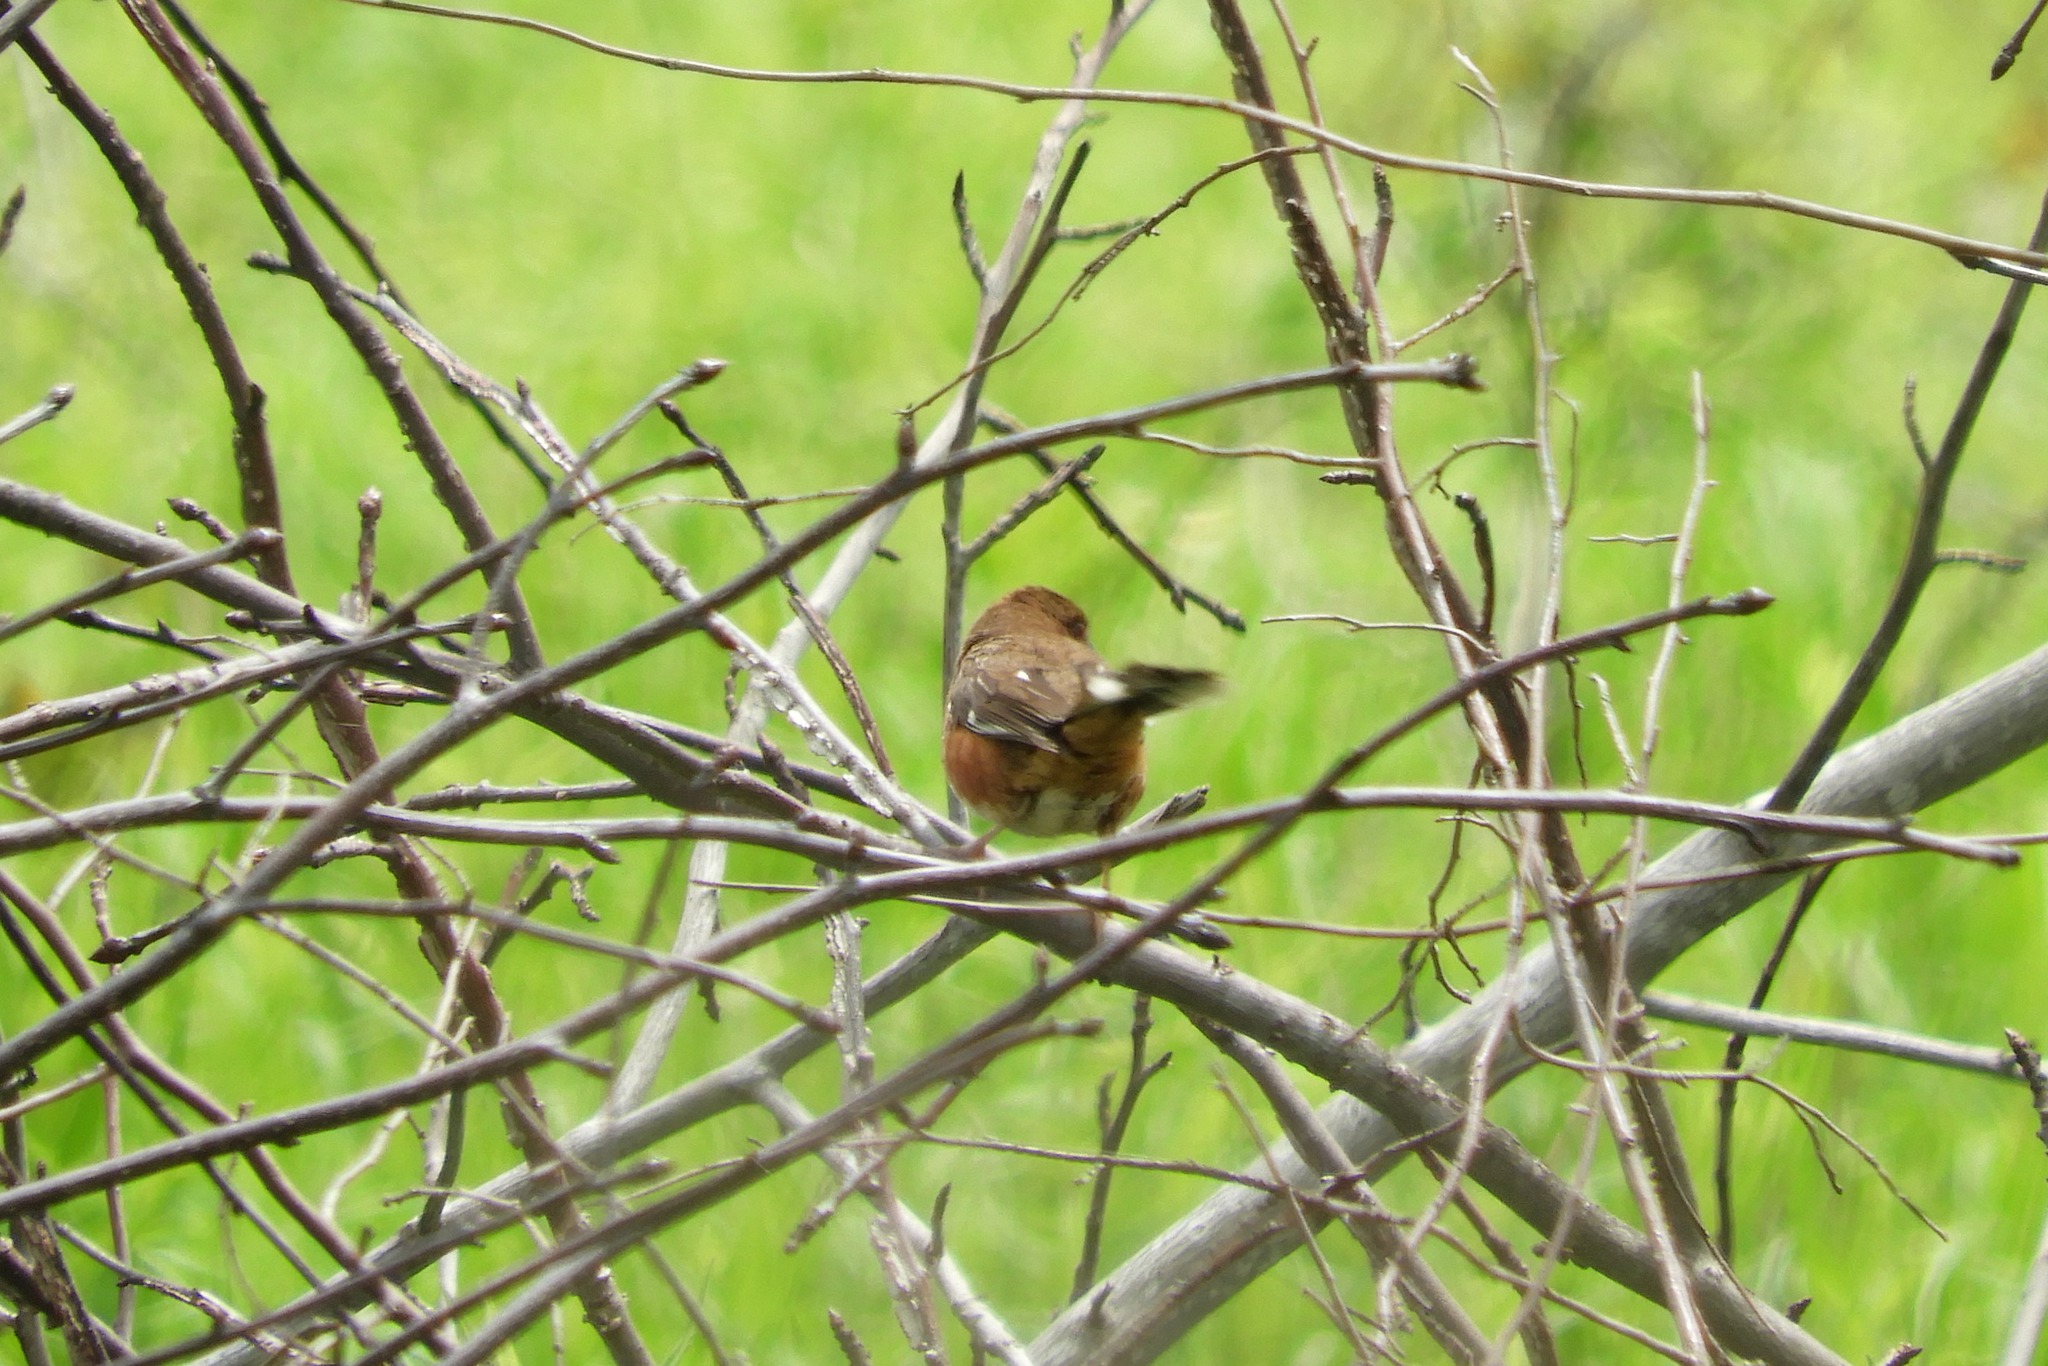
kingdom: Animalia
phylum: Chordata
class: Aves
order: Passeriformes
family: Passerellidae
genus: Pipilo
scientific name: Pipilo erythrophthalmus
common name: Eastern towhee
